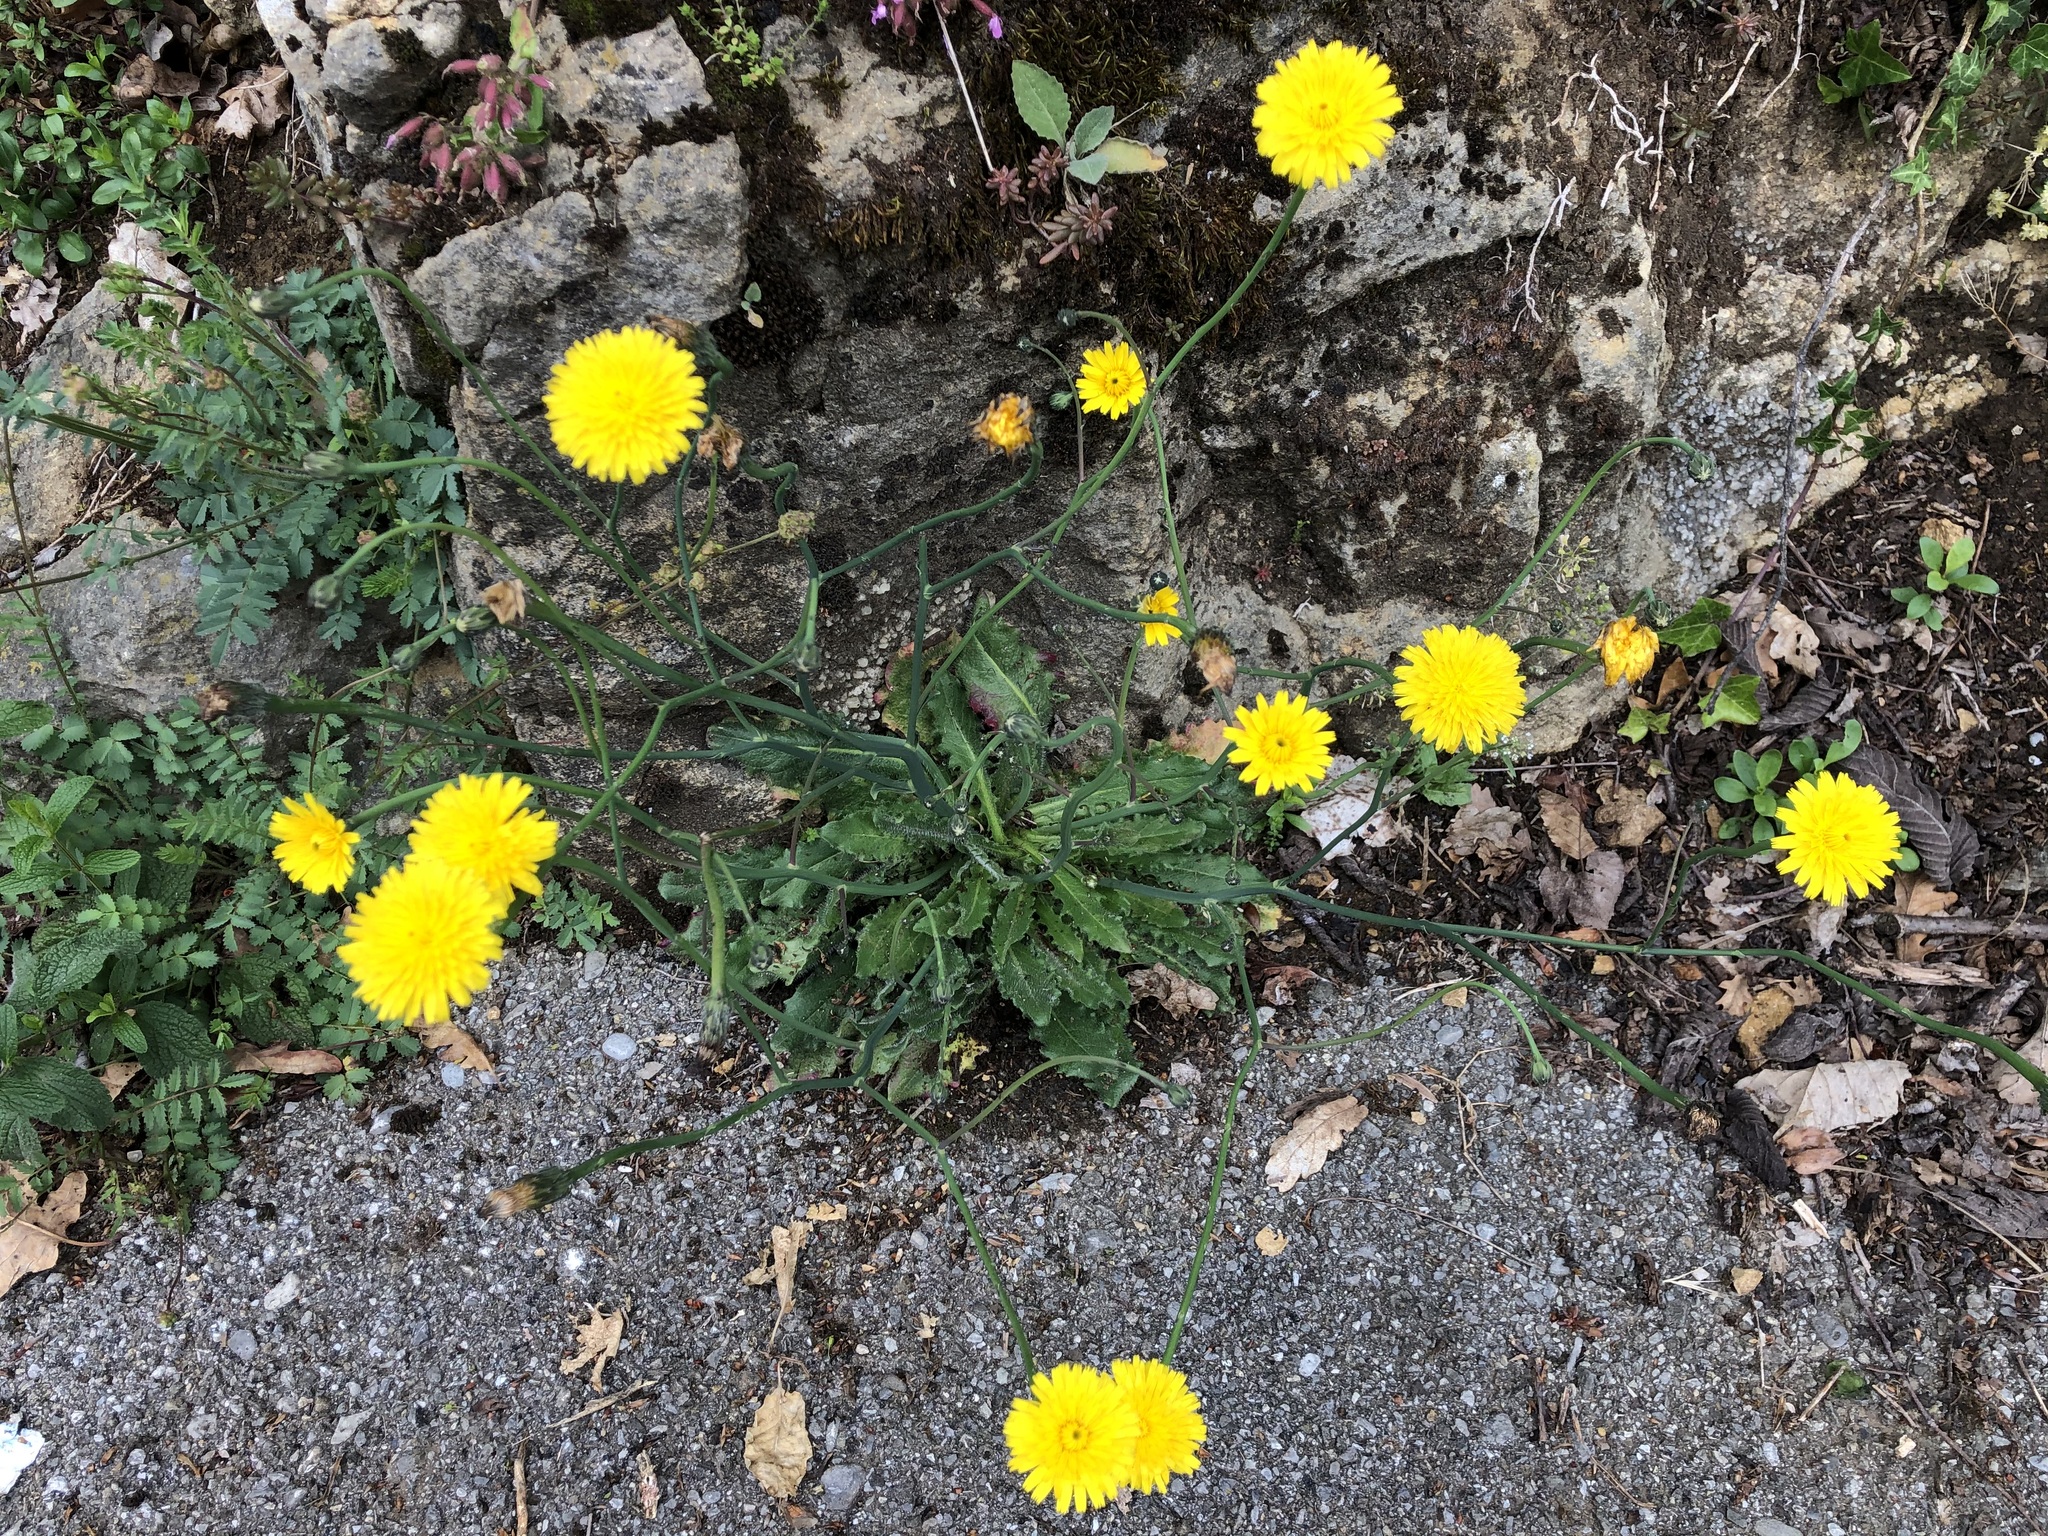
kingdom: Plantae
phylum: Tracheophyta
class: Magnoliopsida
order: Asterales
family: Asteraceae
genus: Hypochaeris
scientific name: Hypochaeris radicata
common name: Flatweed
